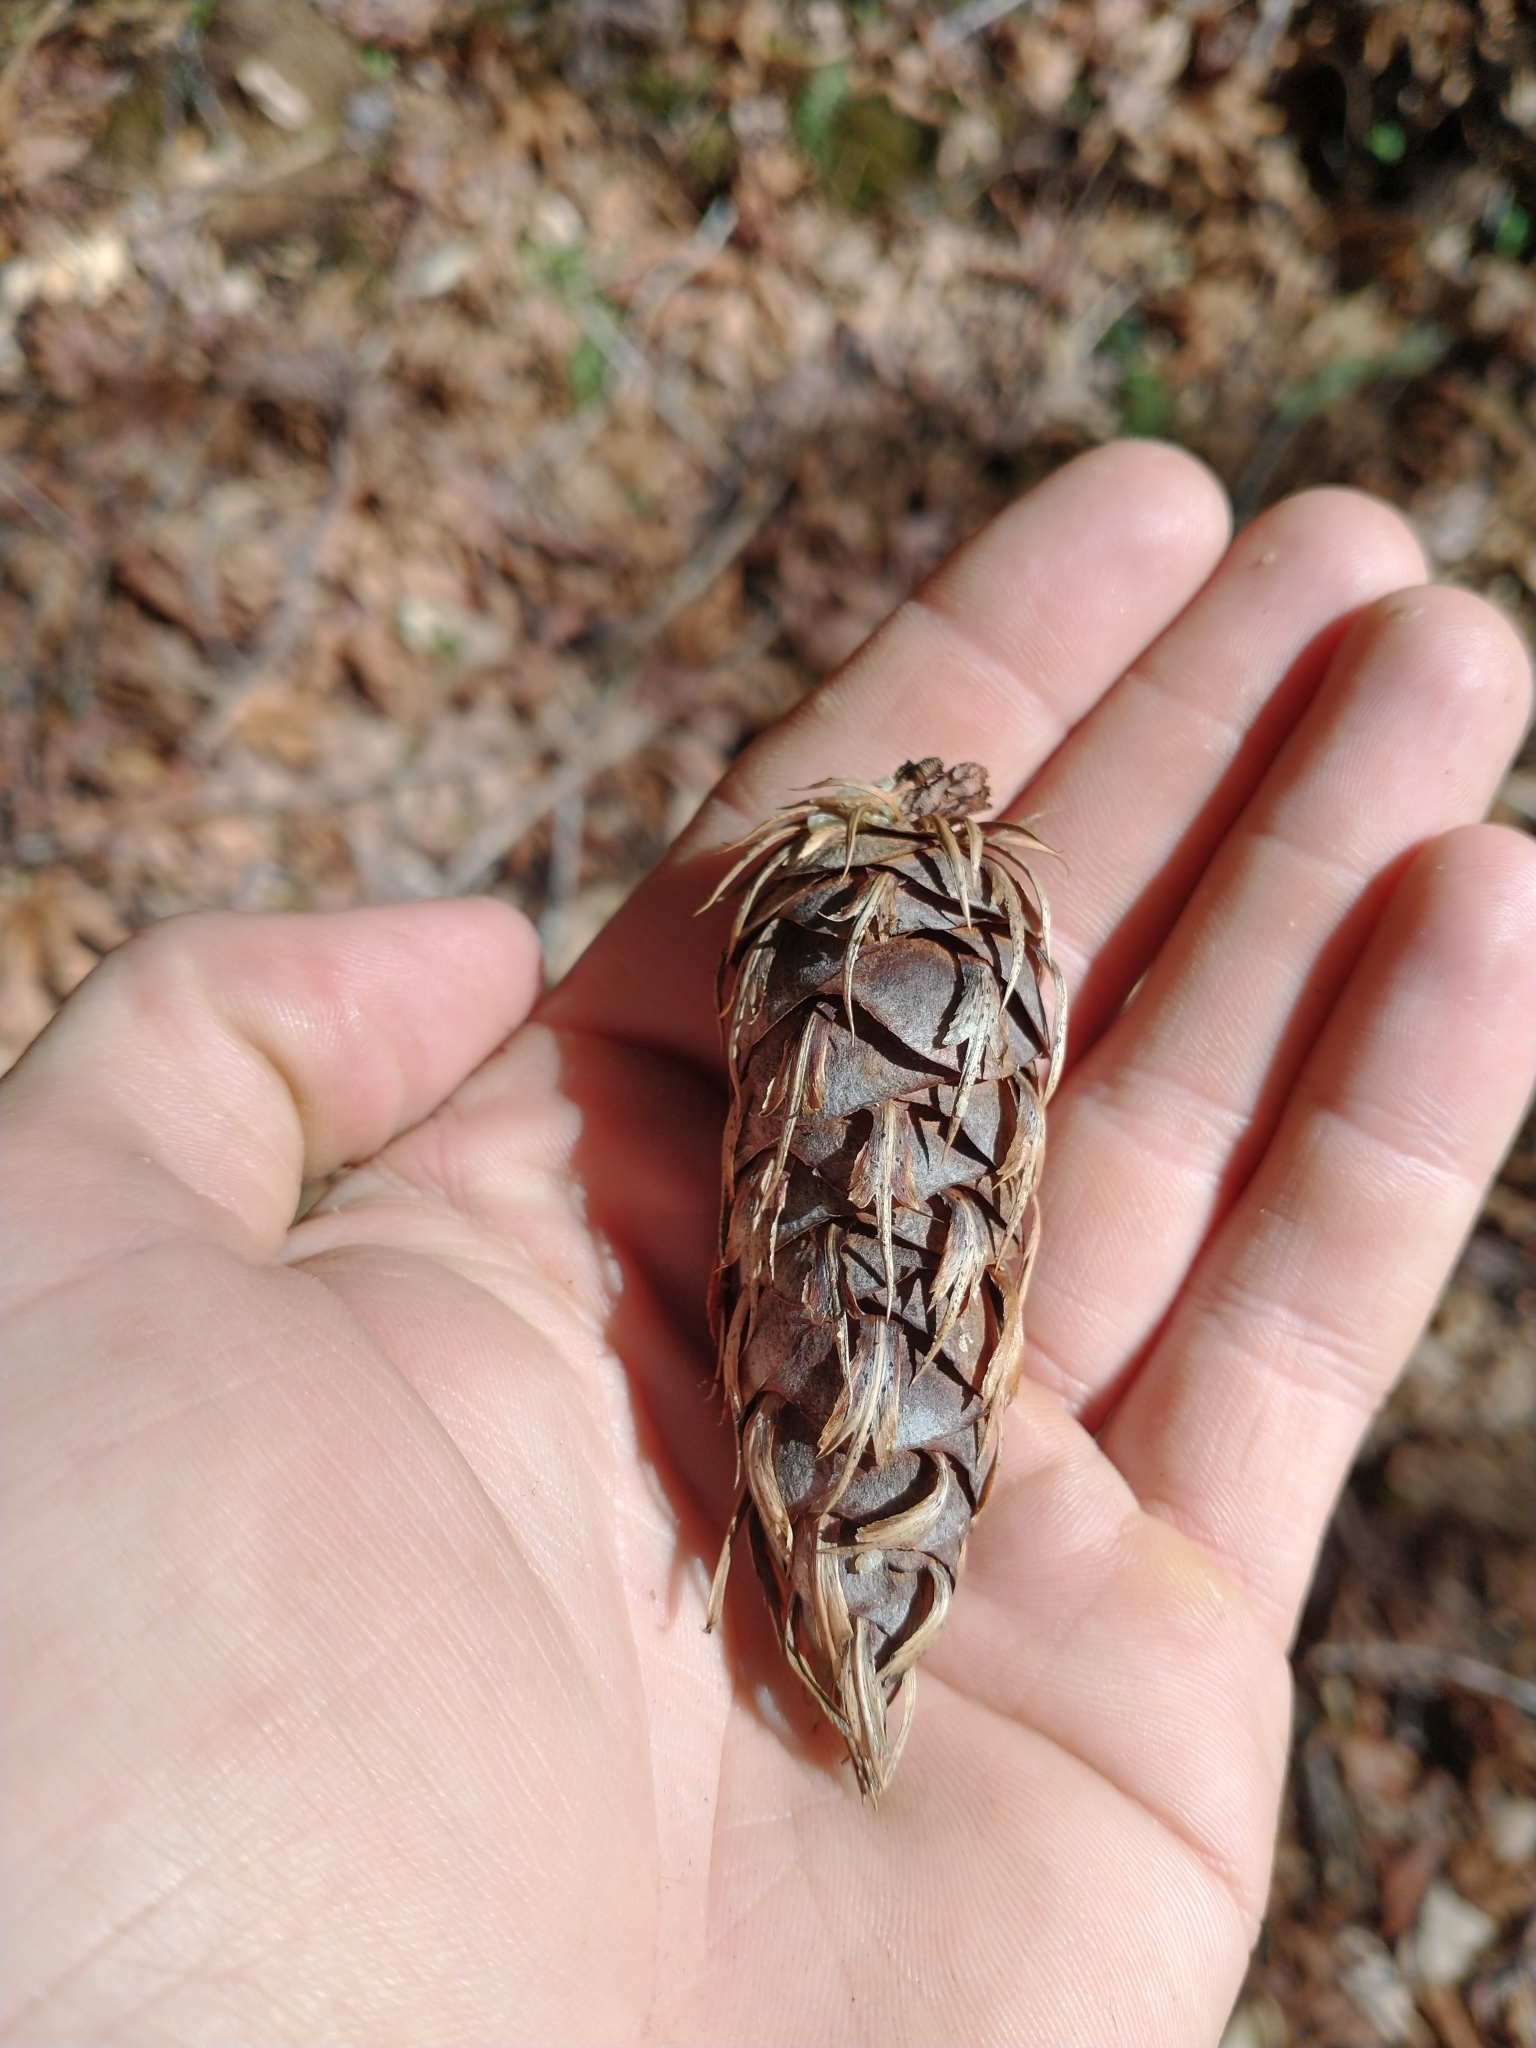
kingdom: Plantae
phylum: Tracheophyta
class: Pinopsida
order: Pinales
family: Pinaceae
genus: Pseudotsuga
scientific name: Pseudotsuga menziesii
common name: Douglas fir
